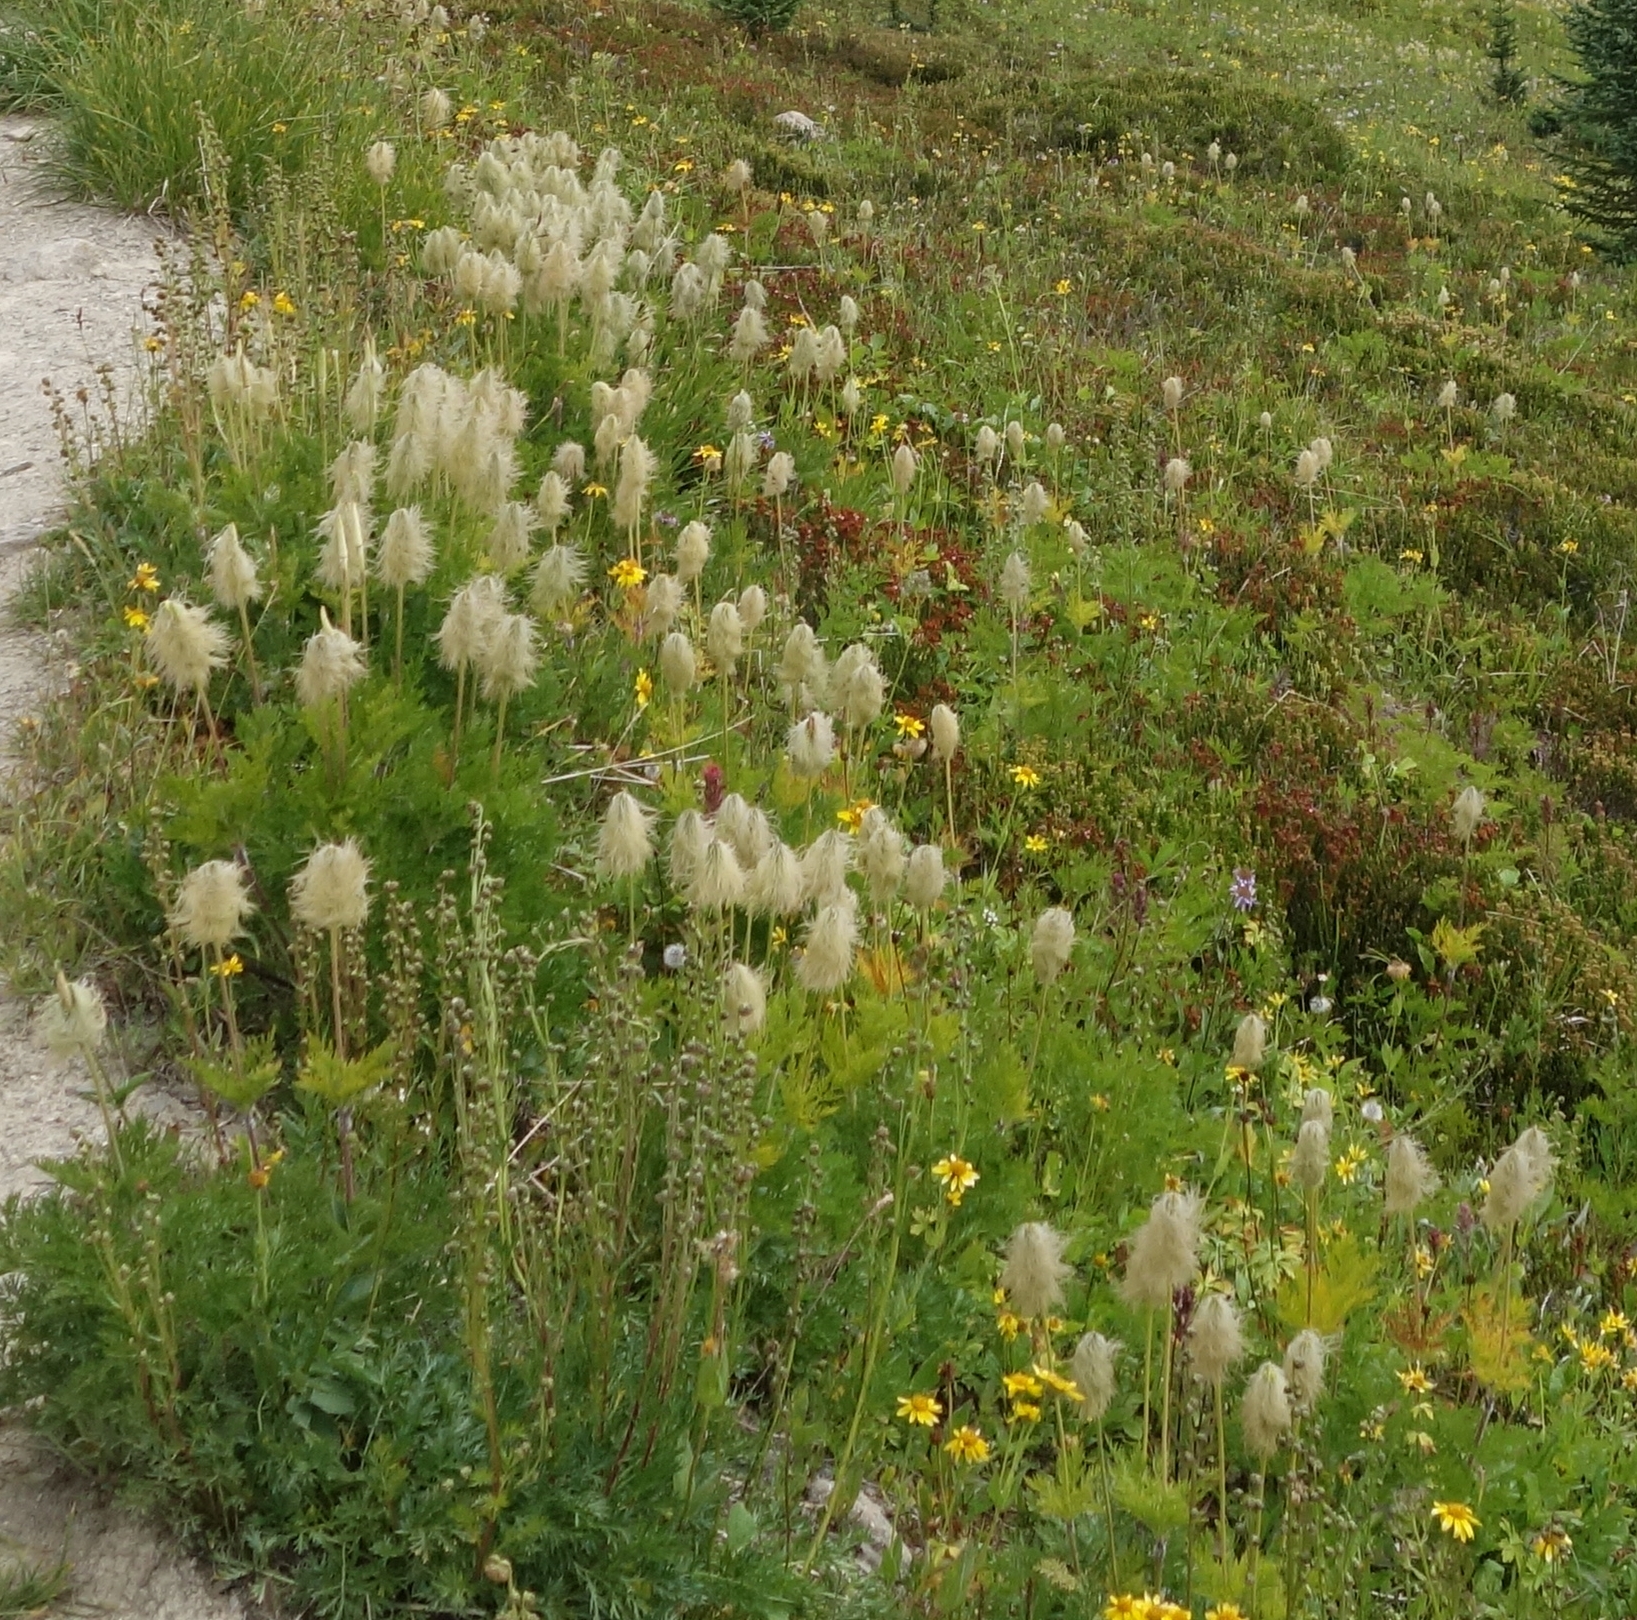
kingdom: Plantae
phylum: Tracheophyta
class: Magnoliopsida
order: Ranunculales
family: Ranunculaceae
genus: Pulsatilla
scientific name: Pulsatilla occidentalis
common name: Mountain pasqueflower
